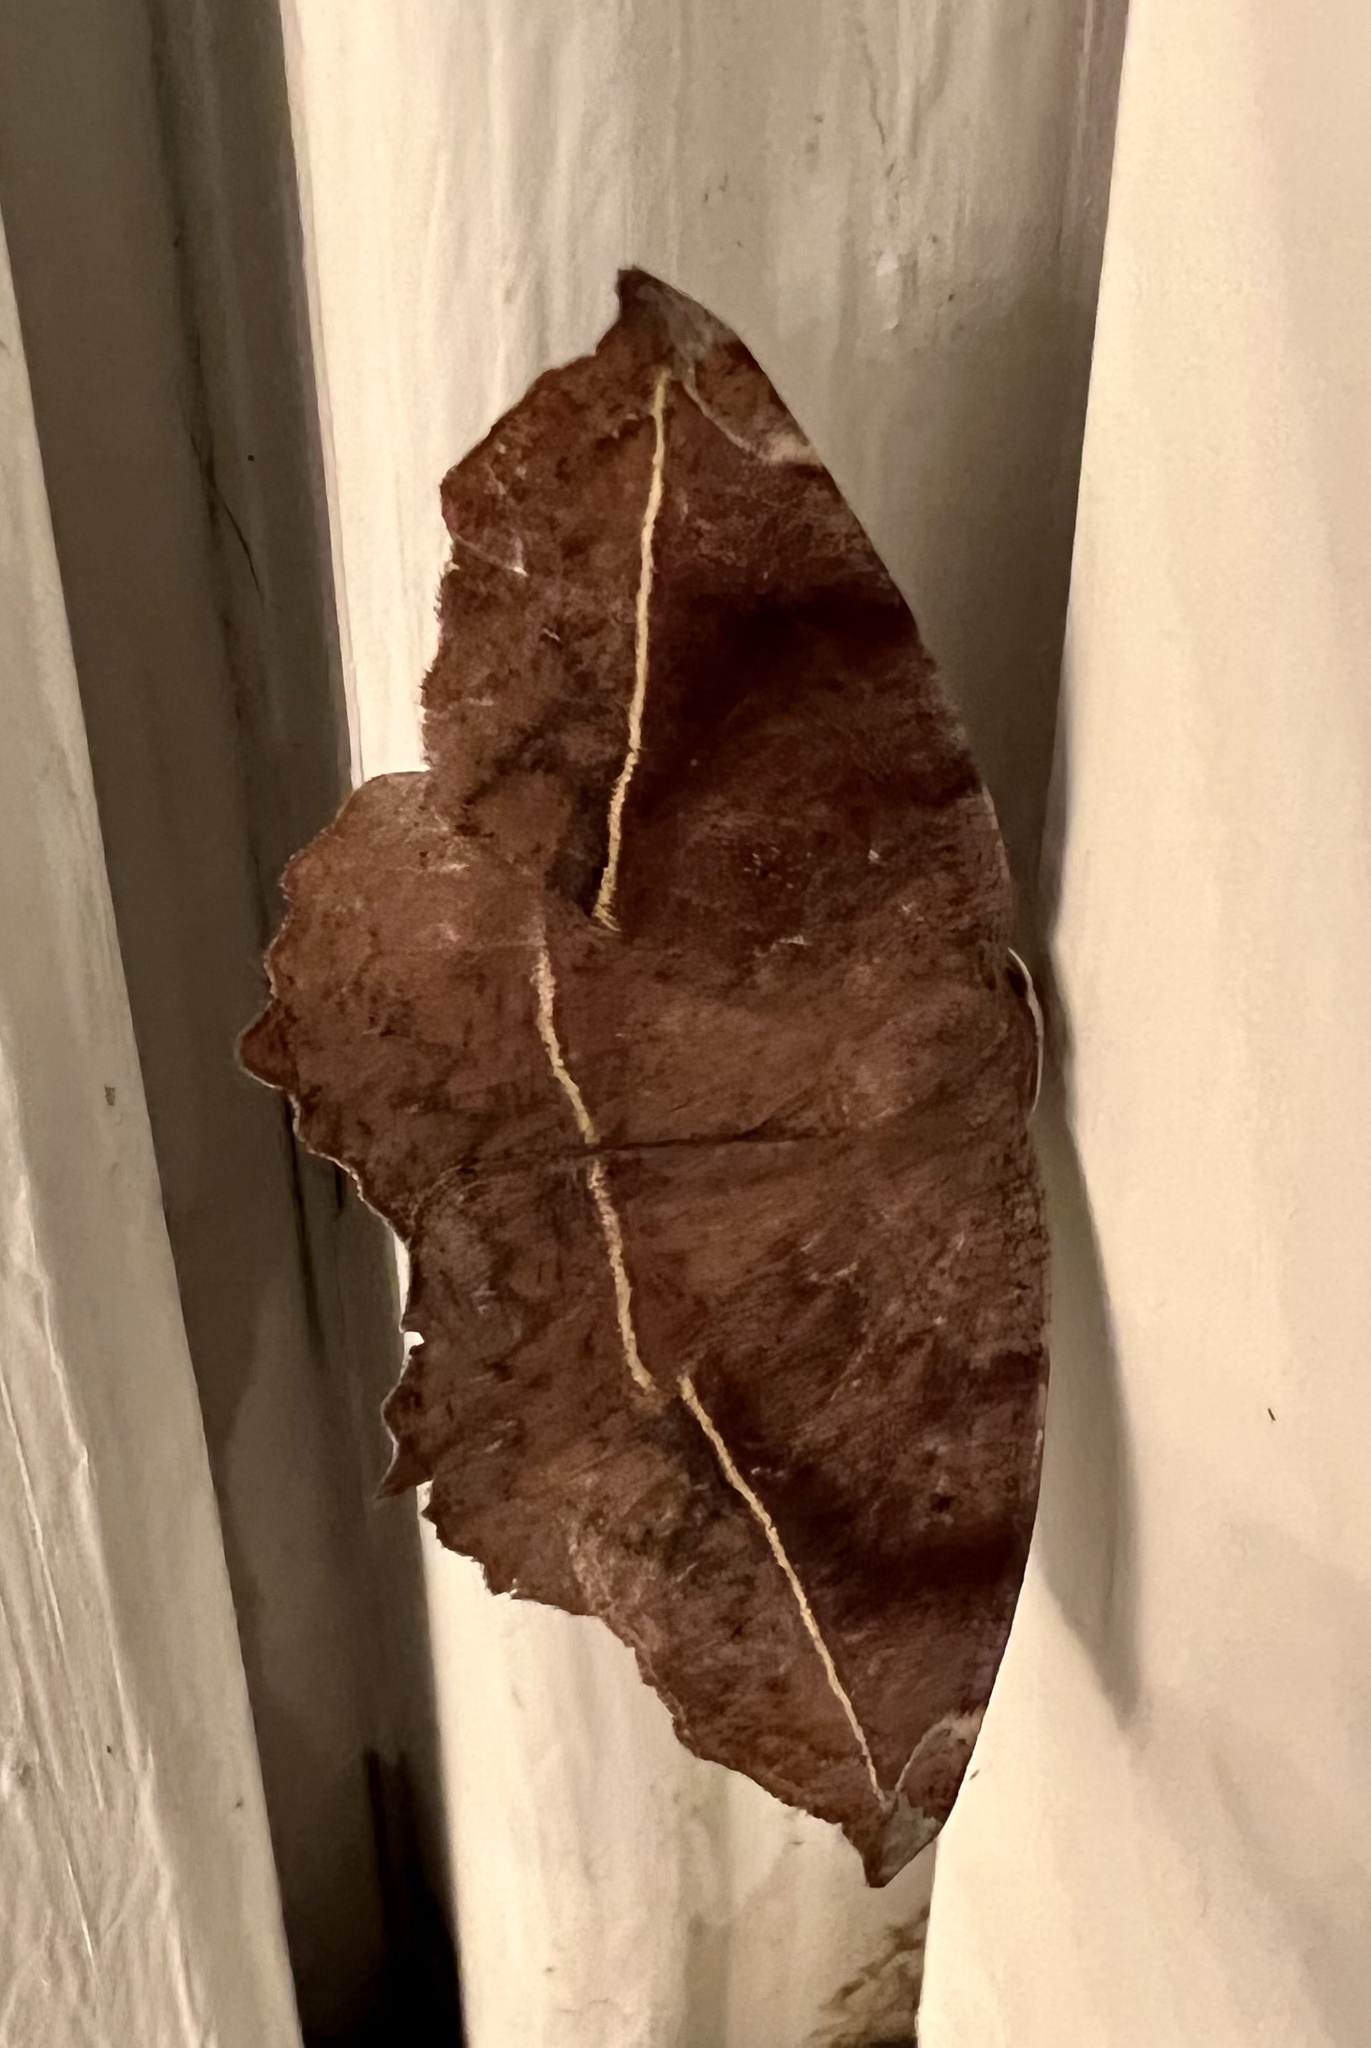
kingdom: Animalia
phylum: Arthropoda
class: Insecta
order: Lepidoptera
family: Geometridae
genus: Eutrapela
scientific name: Eutrapela clemataria
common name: Curved-toothed geometer
